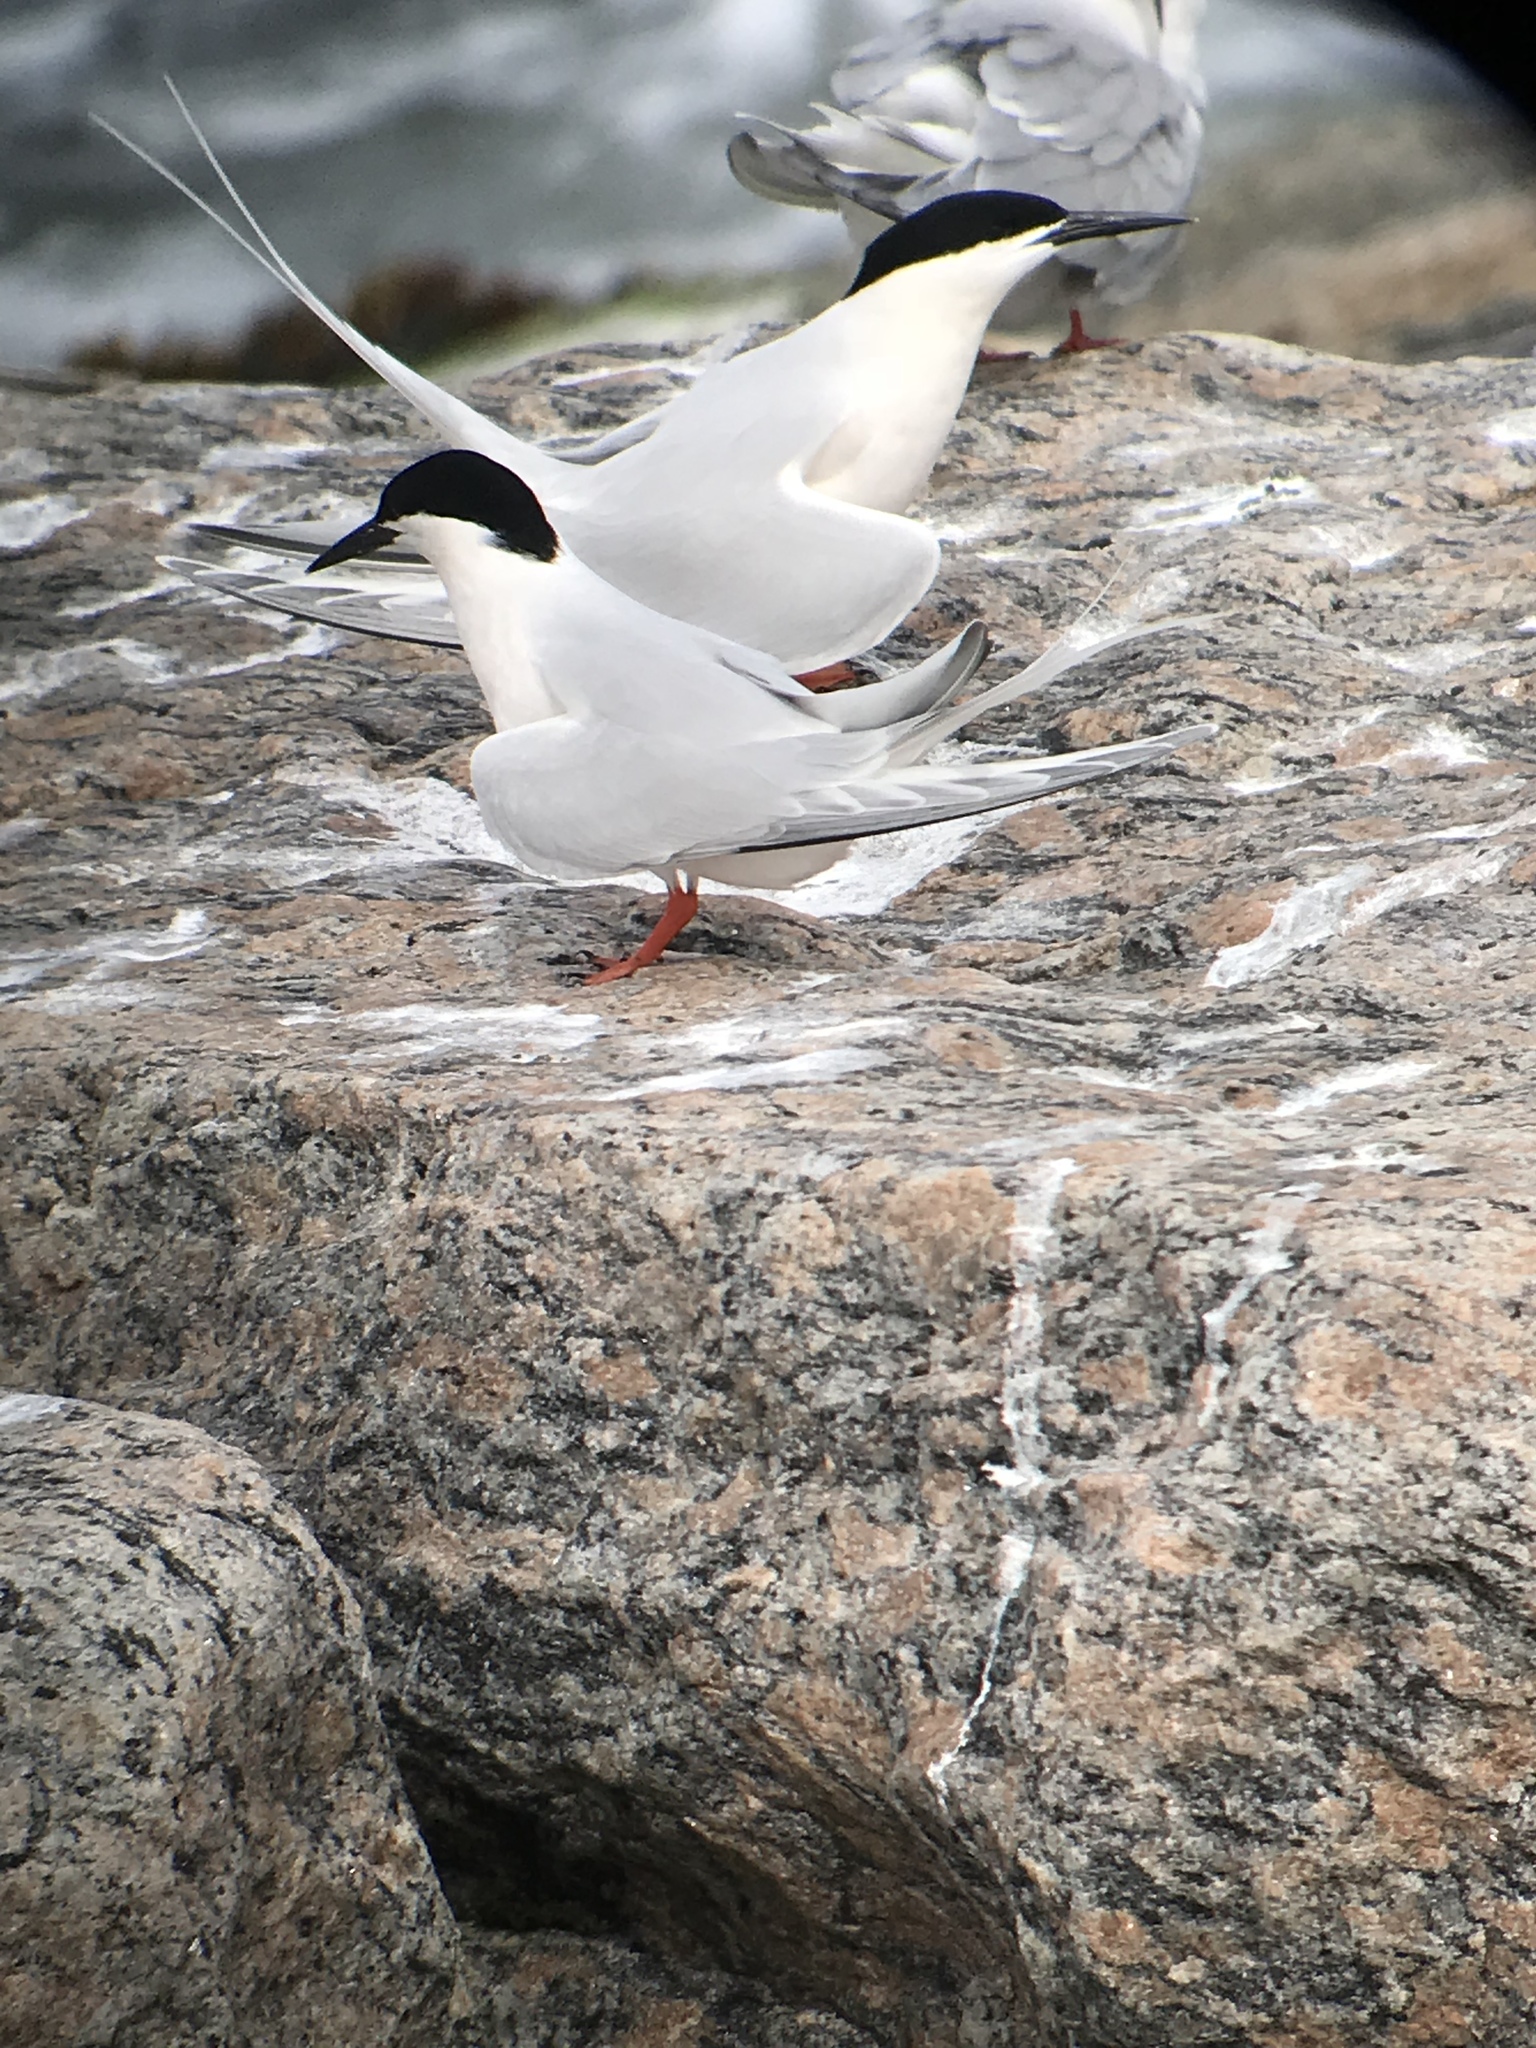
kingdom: Animalia
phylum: Chordata
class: Aves
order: Charadriiformes
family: Laridae
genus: Sterna
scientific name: Sterna dougallii
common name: Roseate tern
